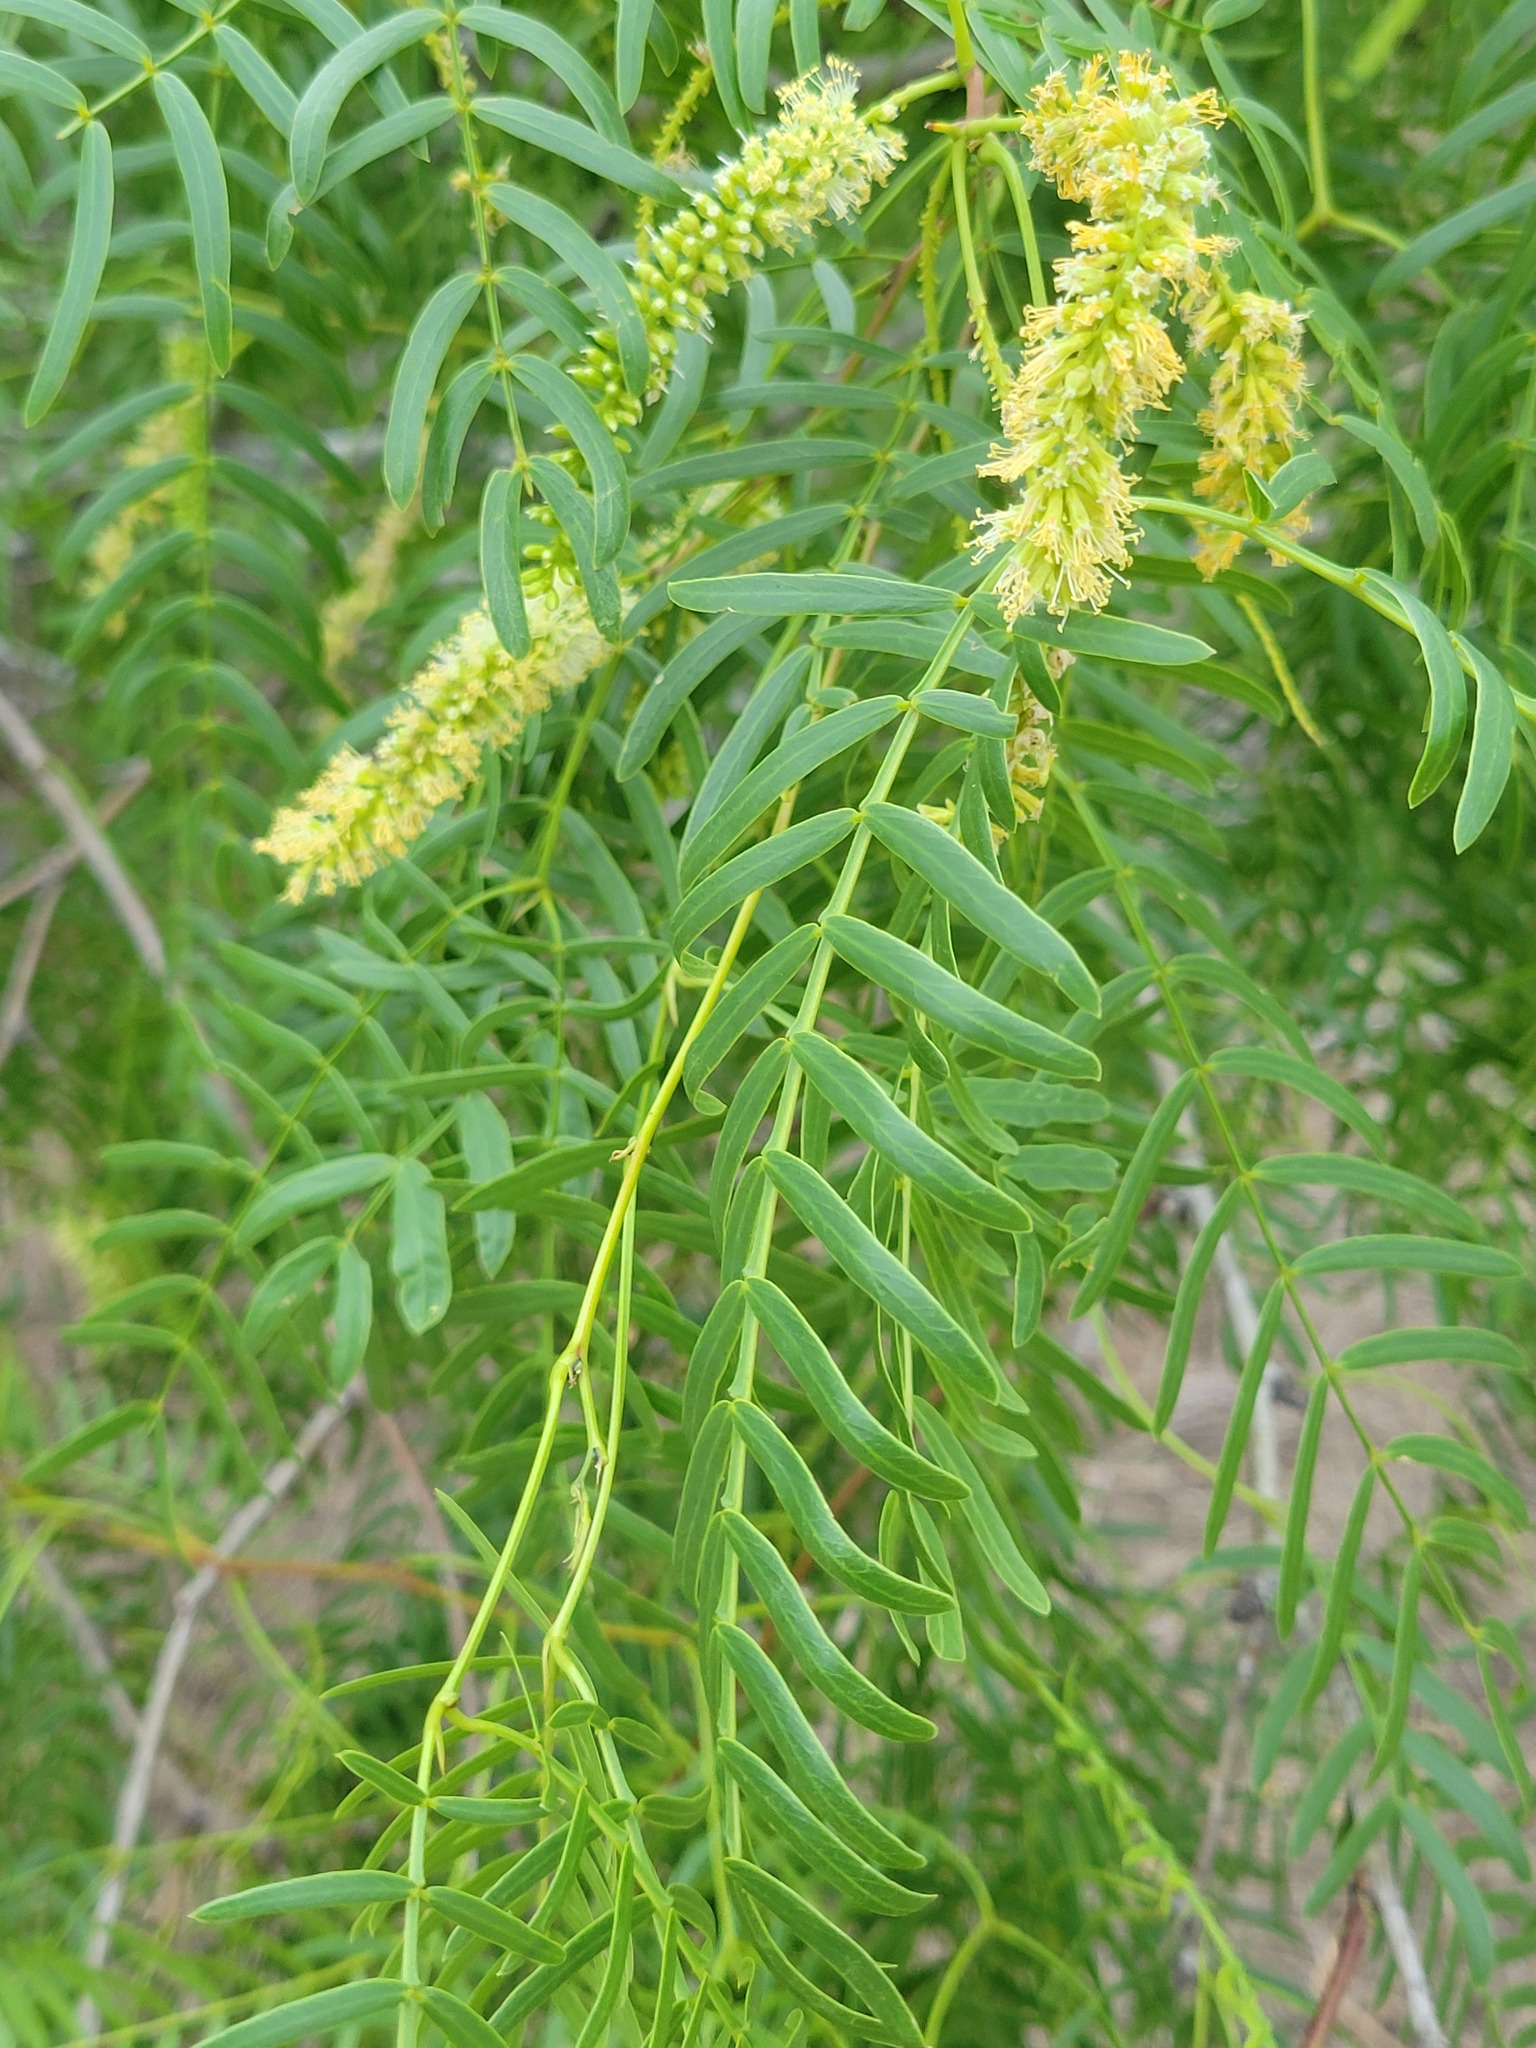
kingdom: Plantae
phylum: Tracheophyta
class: Magnoliopsida
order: Fabales
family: Fabaceae
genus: Prosopis
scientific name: Prosopis glandulosa
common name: Honey mesquite
